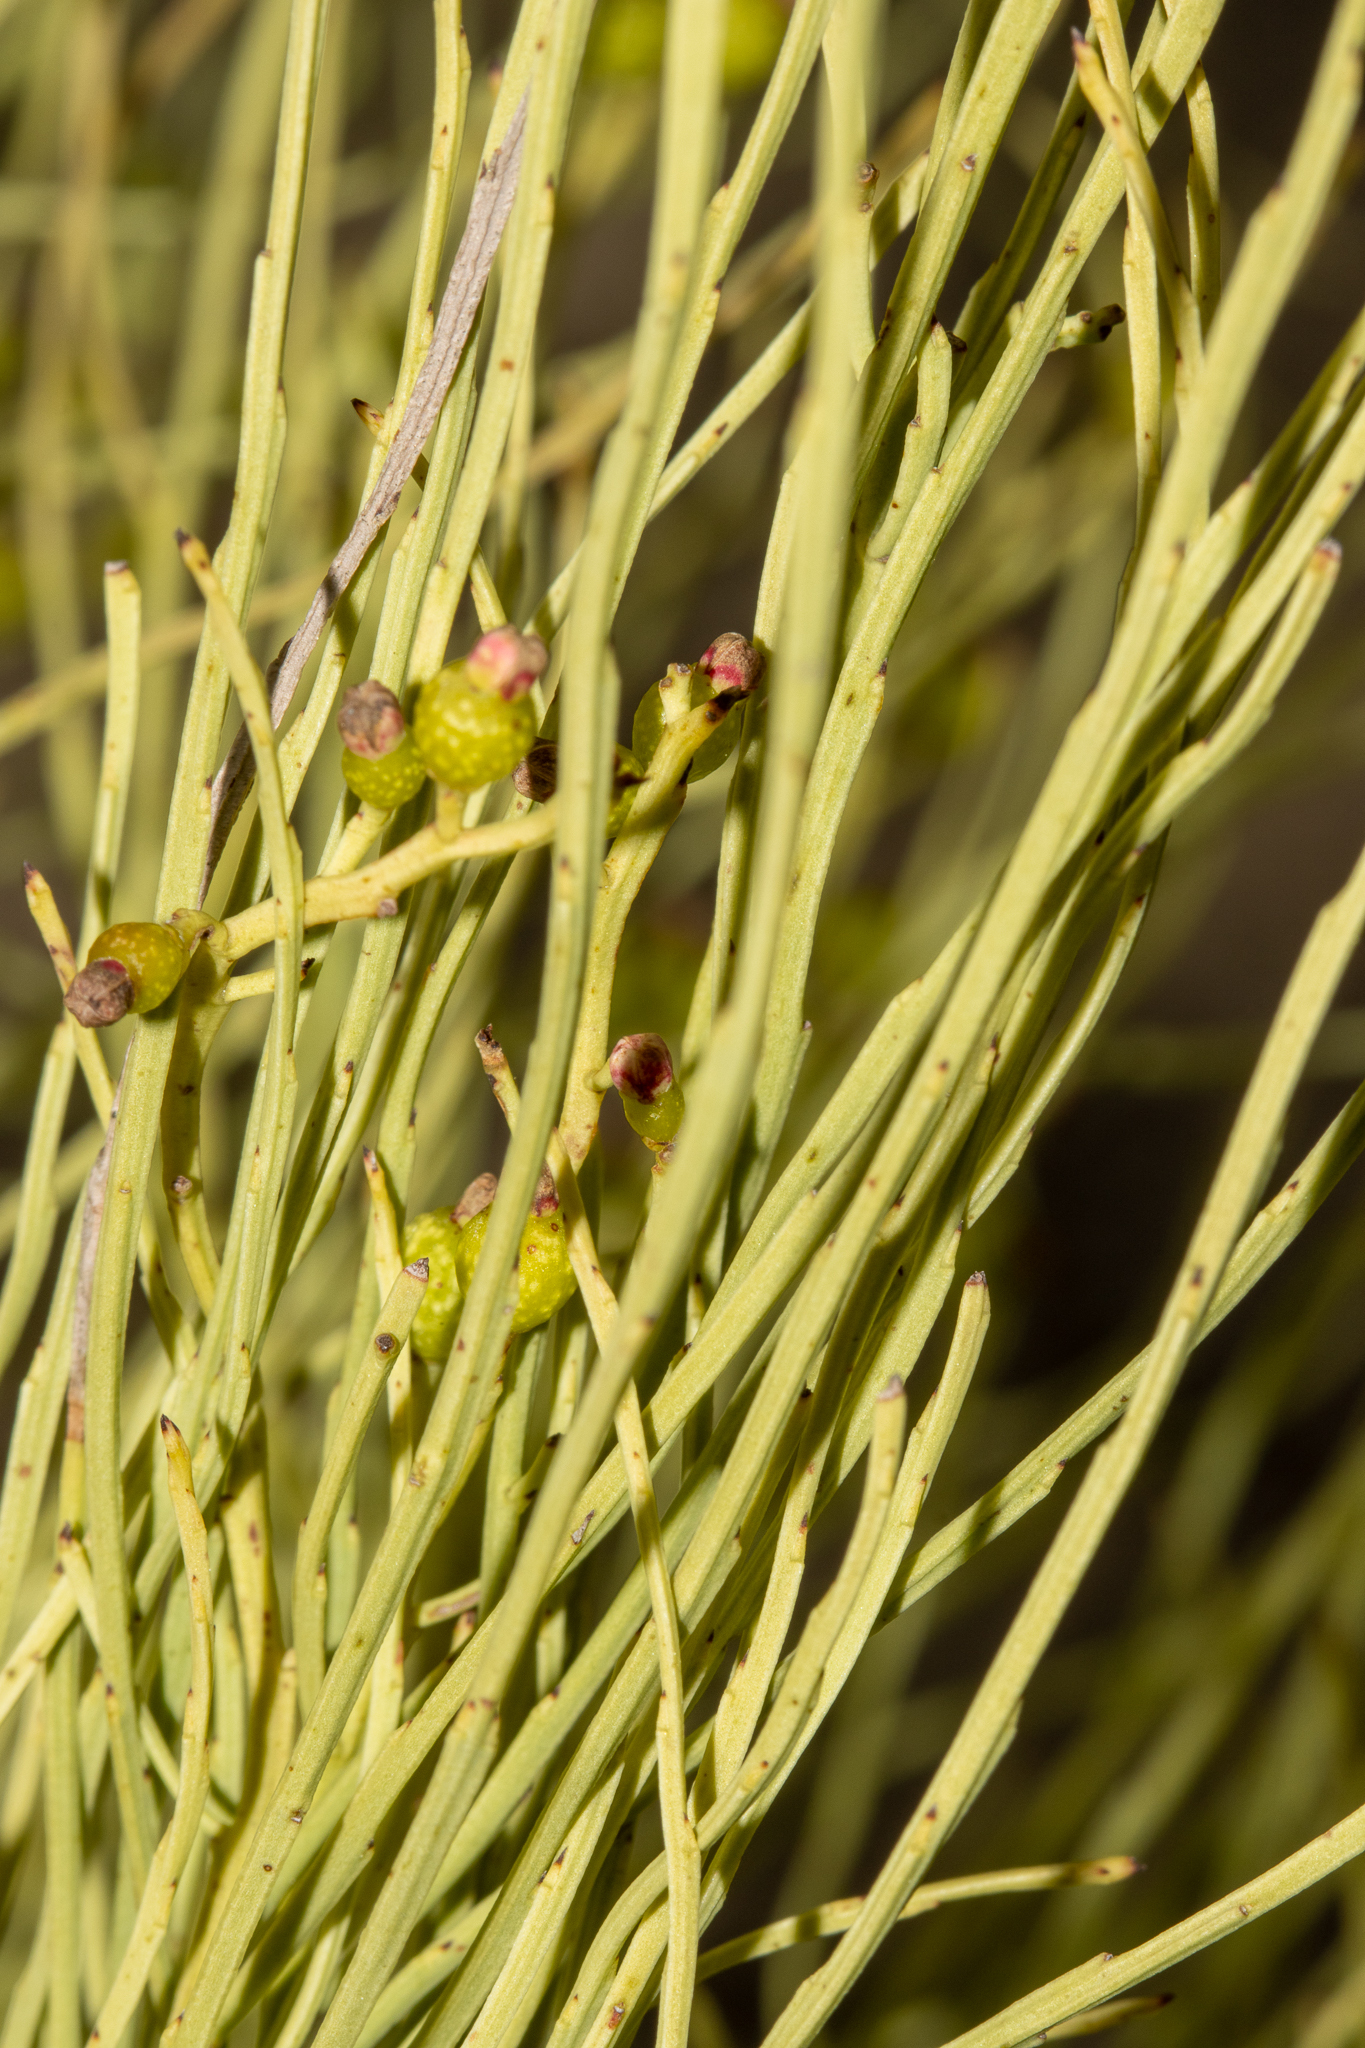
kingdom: Plantae
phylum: Tracheophyta
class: Magnoliopsida
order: Santalales
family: Amphorogynaceae
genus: Choretrum
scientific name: Choretrum glomeratum
